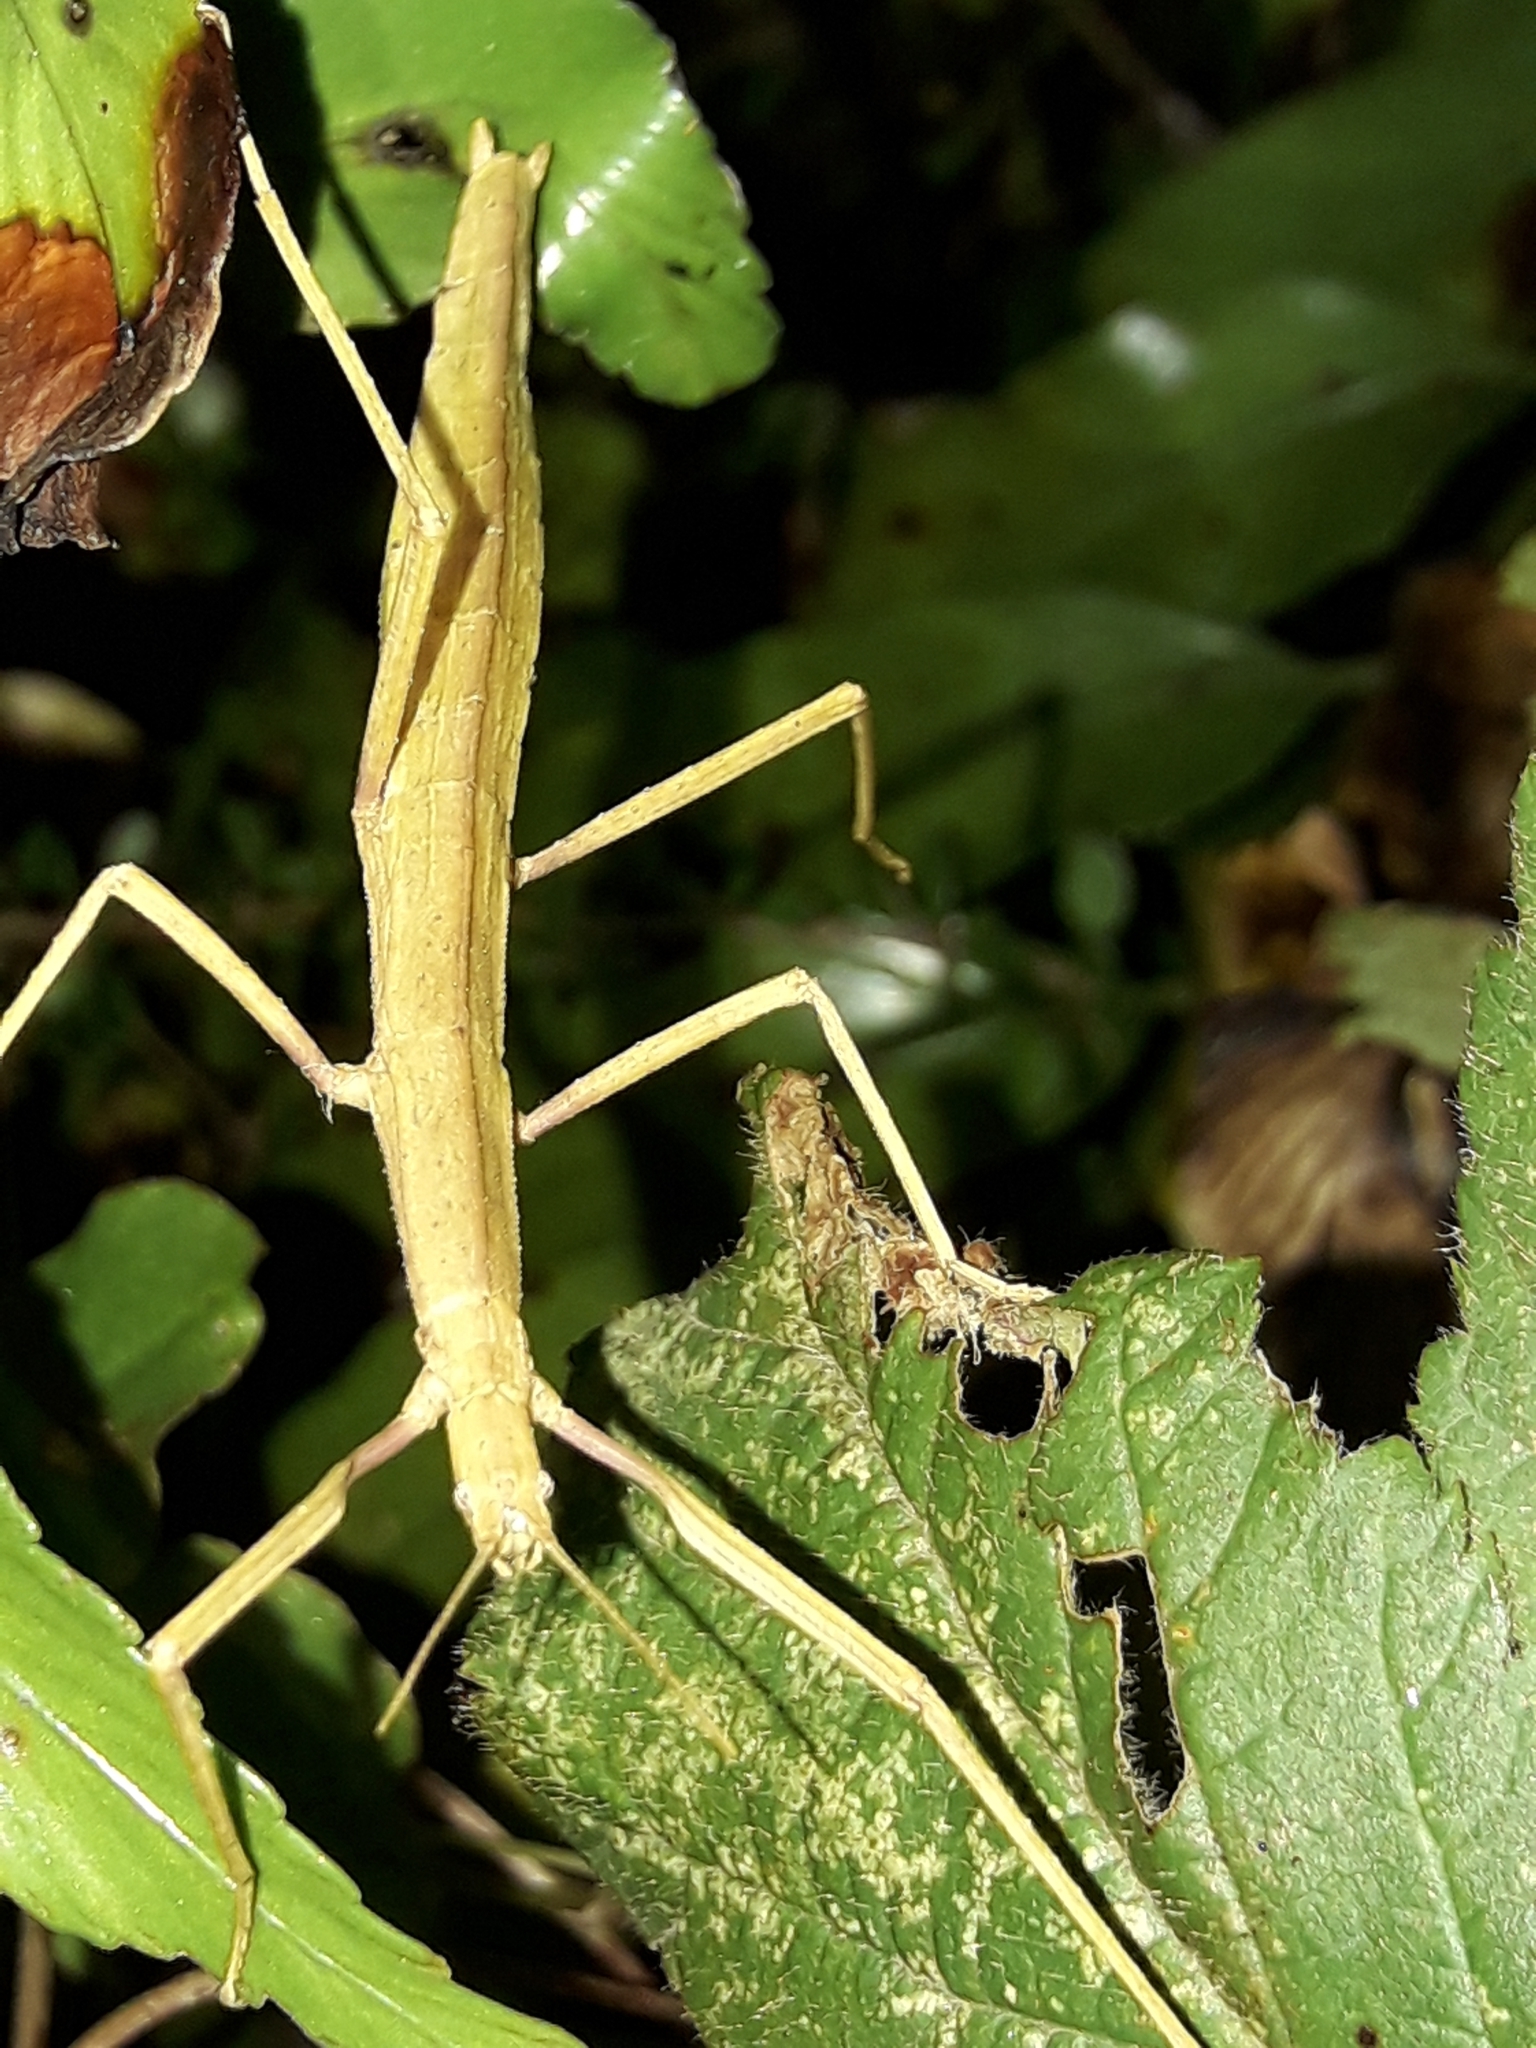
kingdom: Animalia
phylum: Arthropoda
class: Insecta
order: Phasmida
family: Phasmatidae
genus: Tectarchus
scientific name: Tectarchus huttoni
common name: The common ridge-backed stick insect
